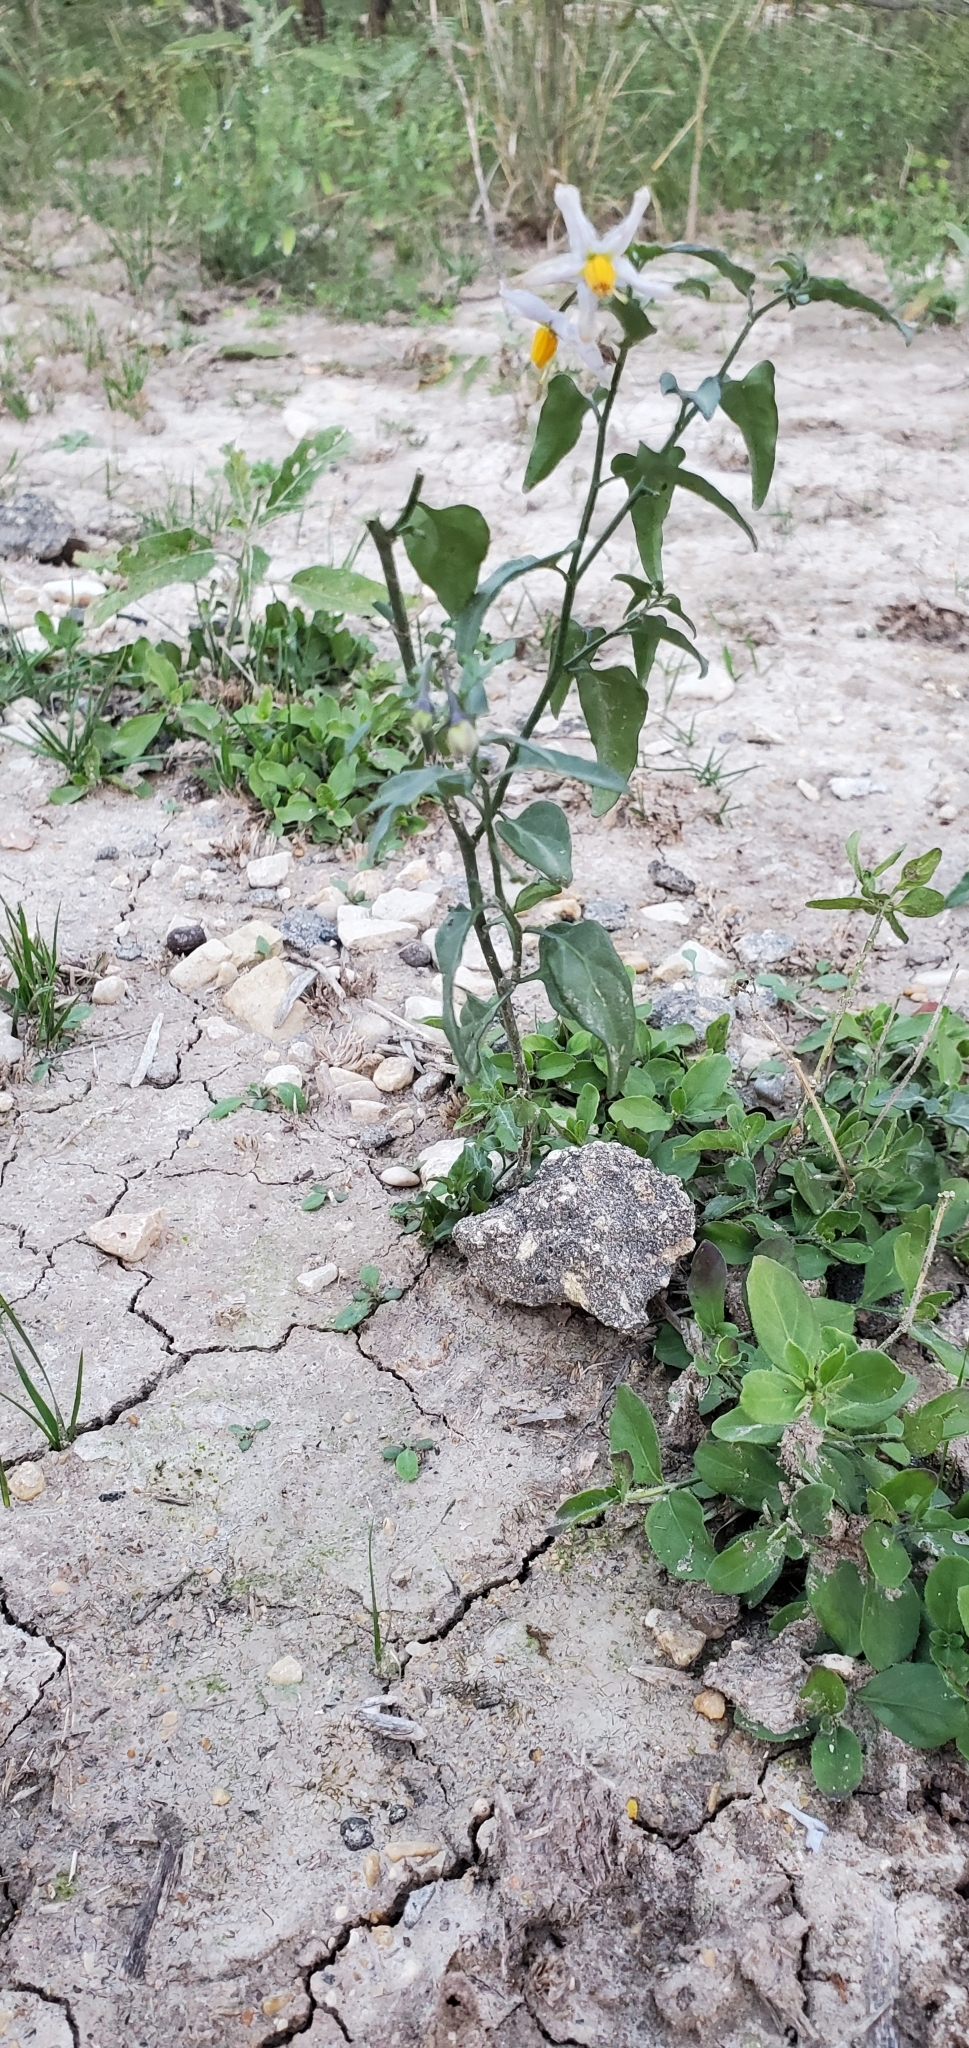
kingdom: Plantae
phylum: Tracheophyta
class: Magnoliopsida
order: Solanales
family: Solanaceae
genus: Solanum
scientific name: Solanum triquetrum
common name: Texas nightshade
